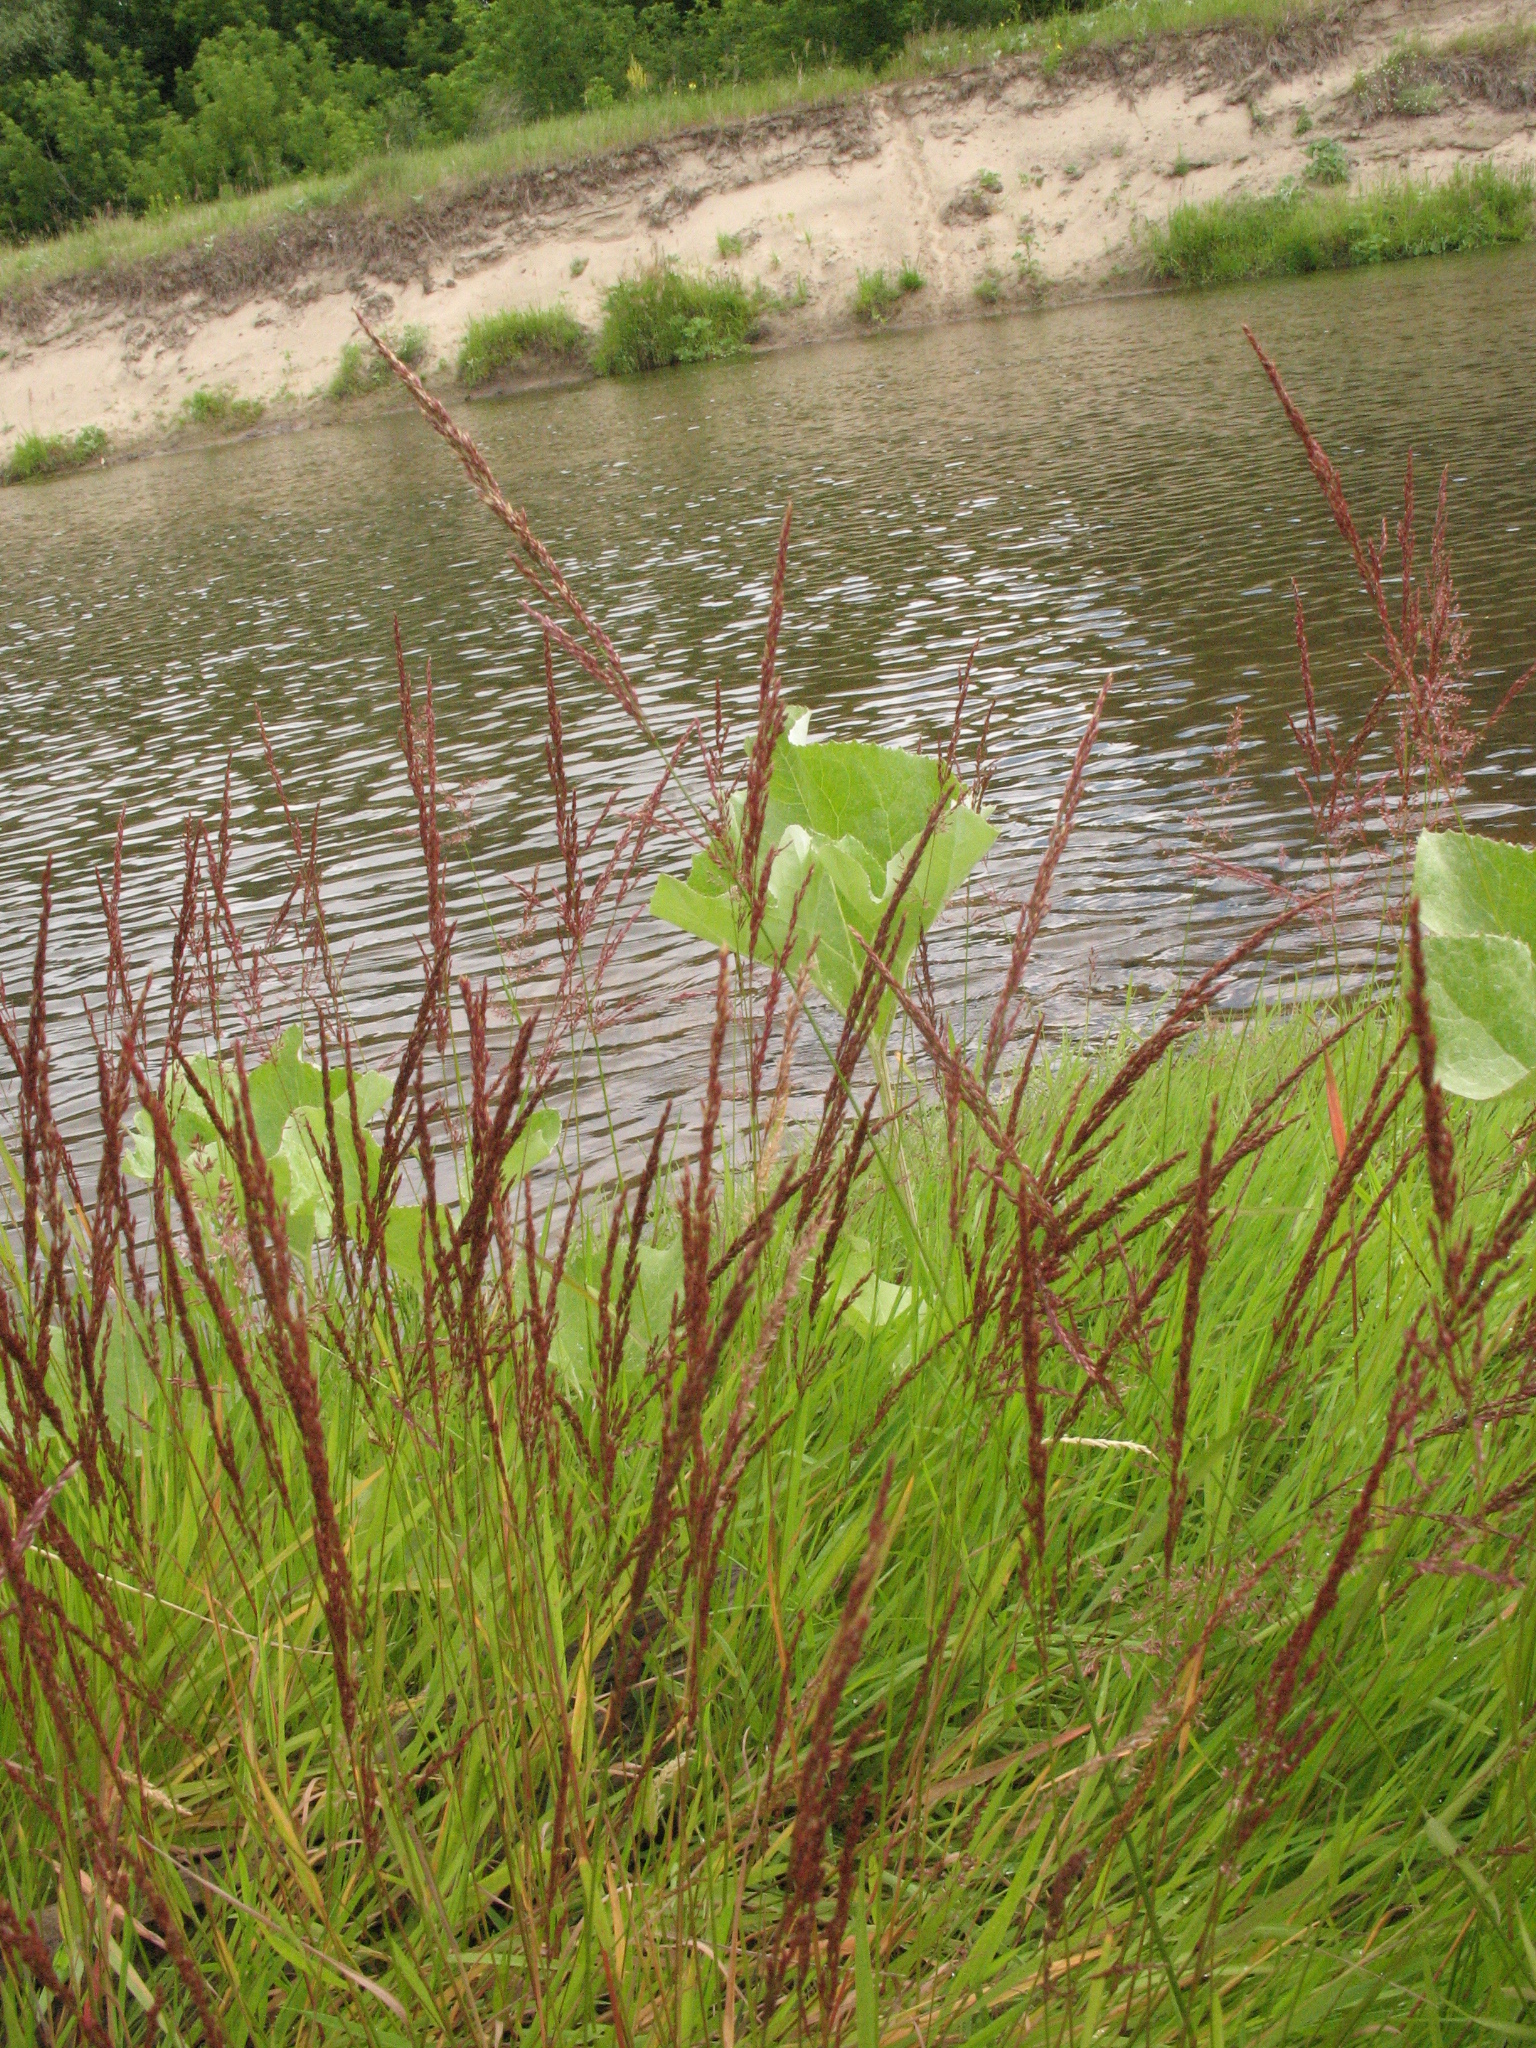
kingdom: Plantae
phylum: Tracheophyta
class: Liliopsida
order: Poales
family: Poaceae
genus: Agrostis
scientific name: Agrostis stolonifera
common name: Creeping bentgrass
